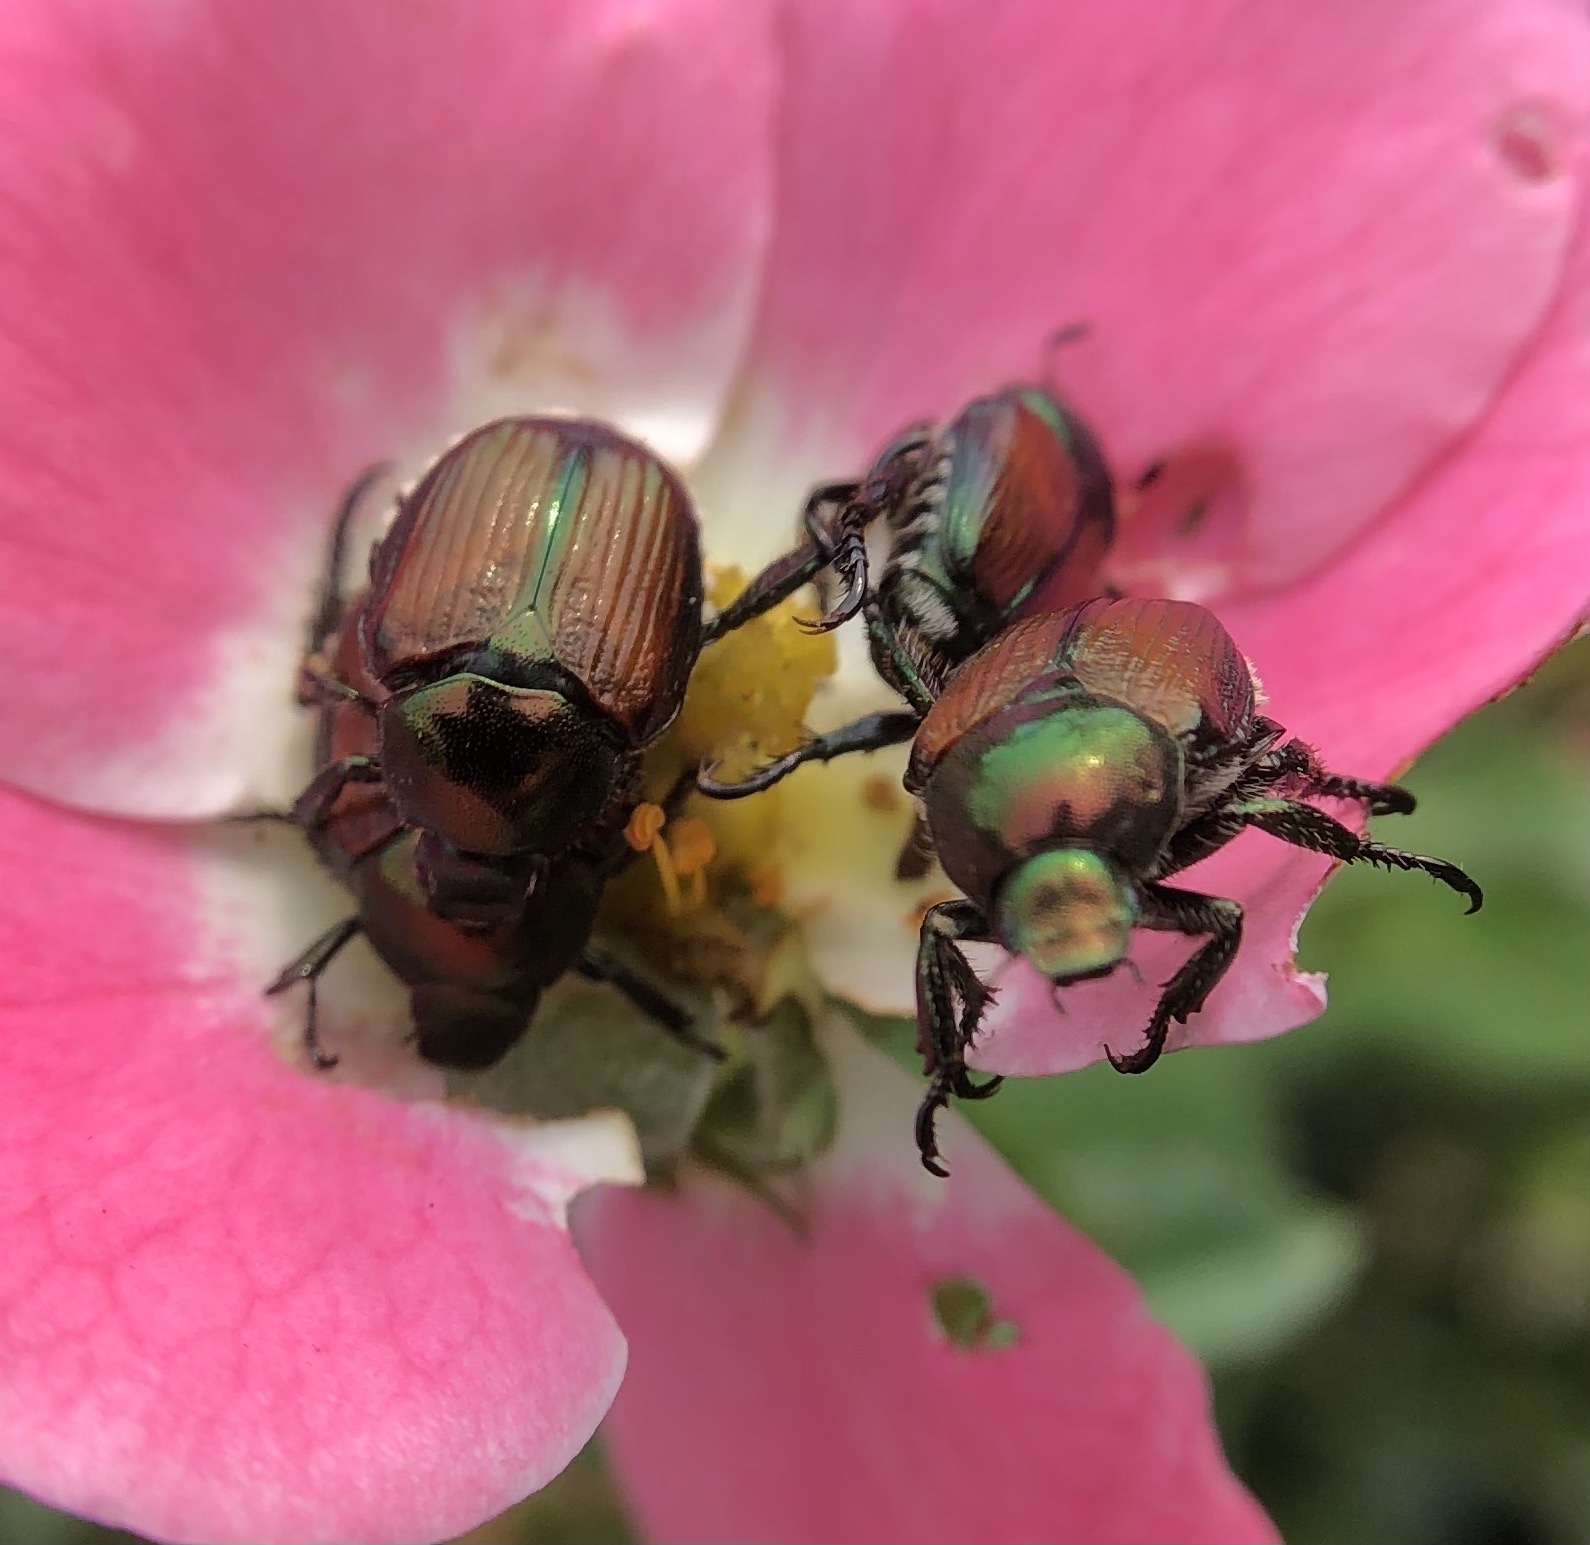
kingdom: Animalia
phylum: Arthropoda
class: Insecta
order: Coleoptera
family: Scarabaeidae
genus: Popillia
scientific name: Popillia japonica
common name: Japanese beetle
